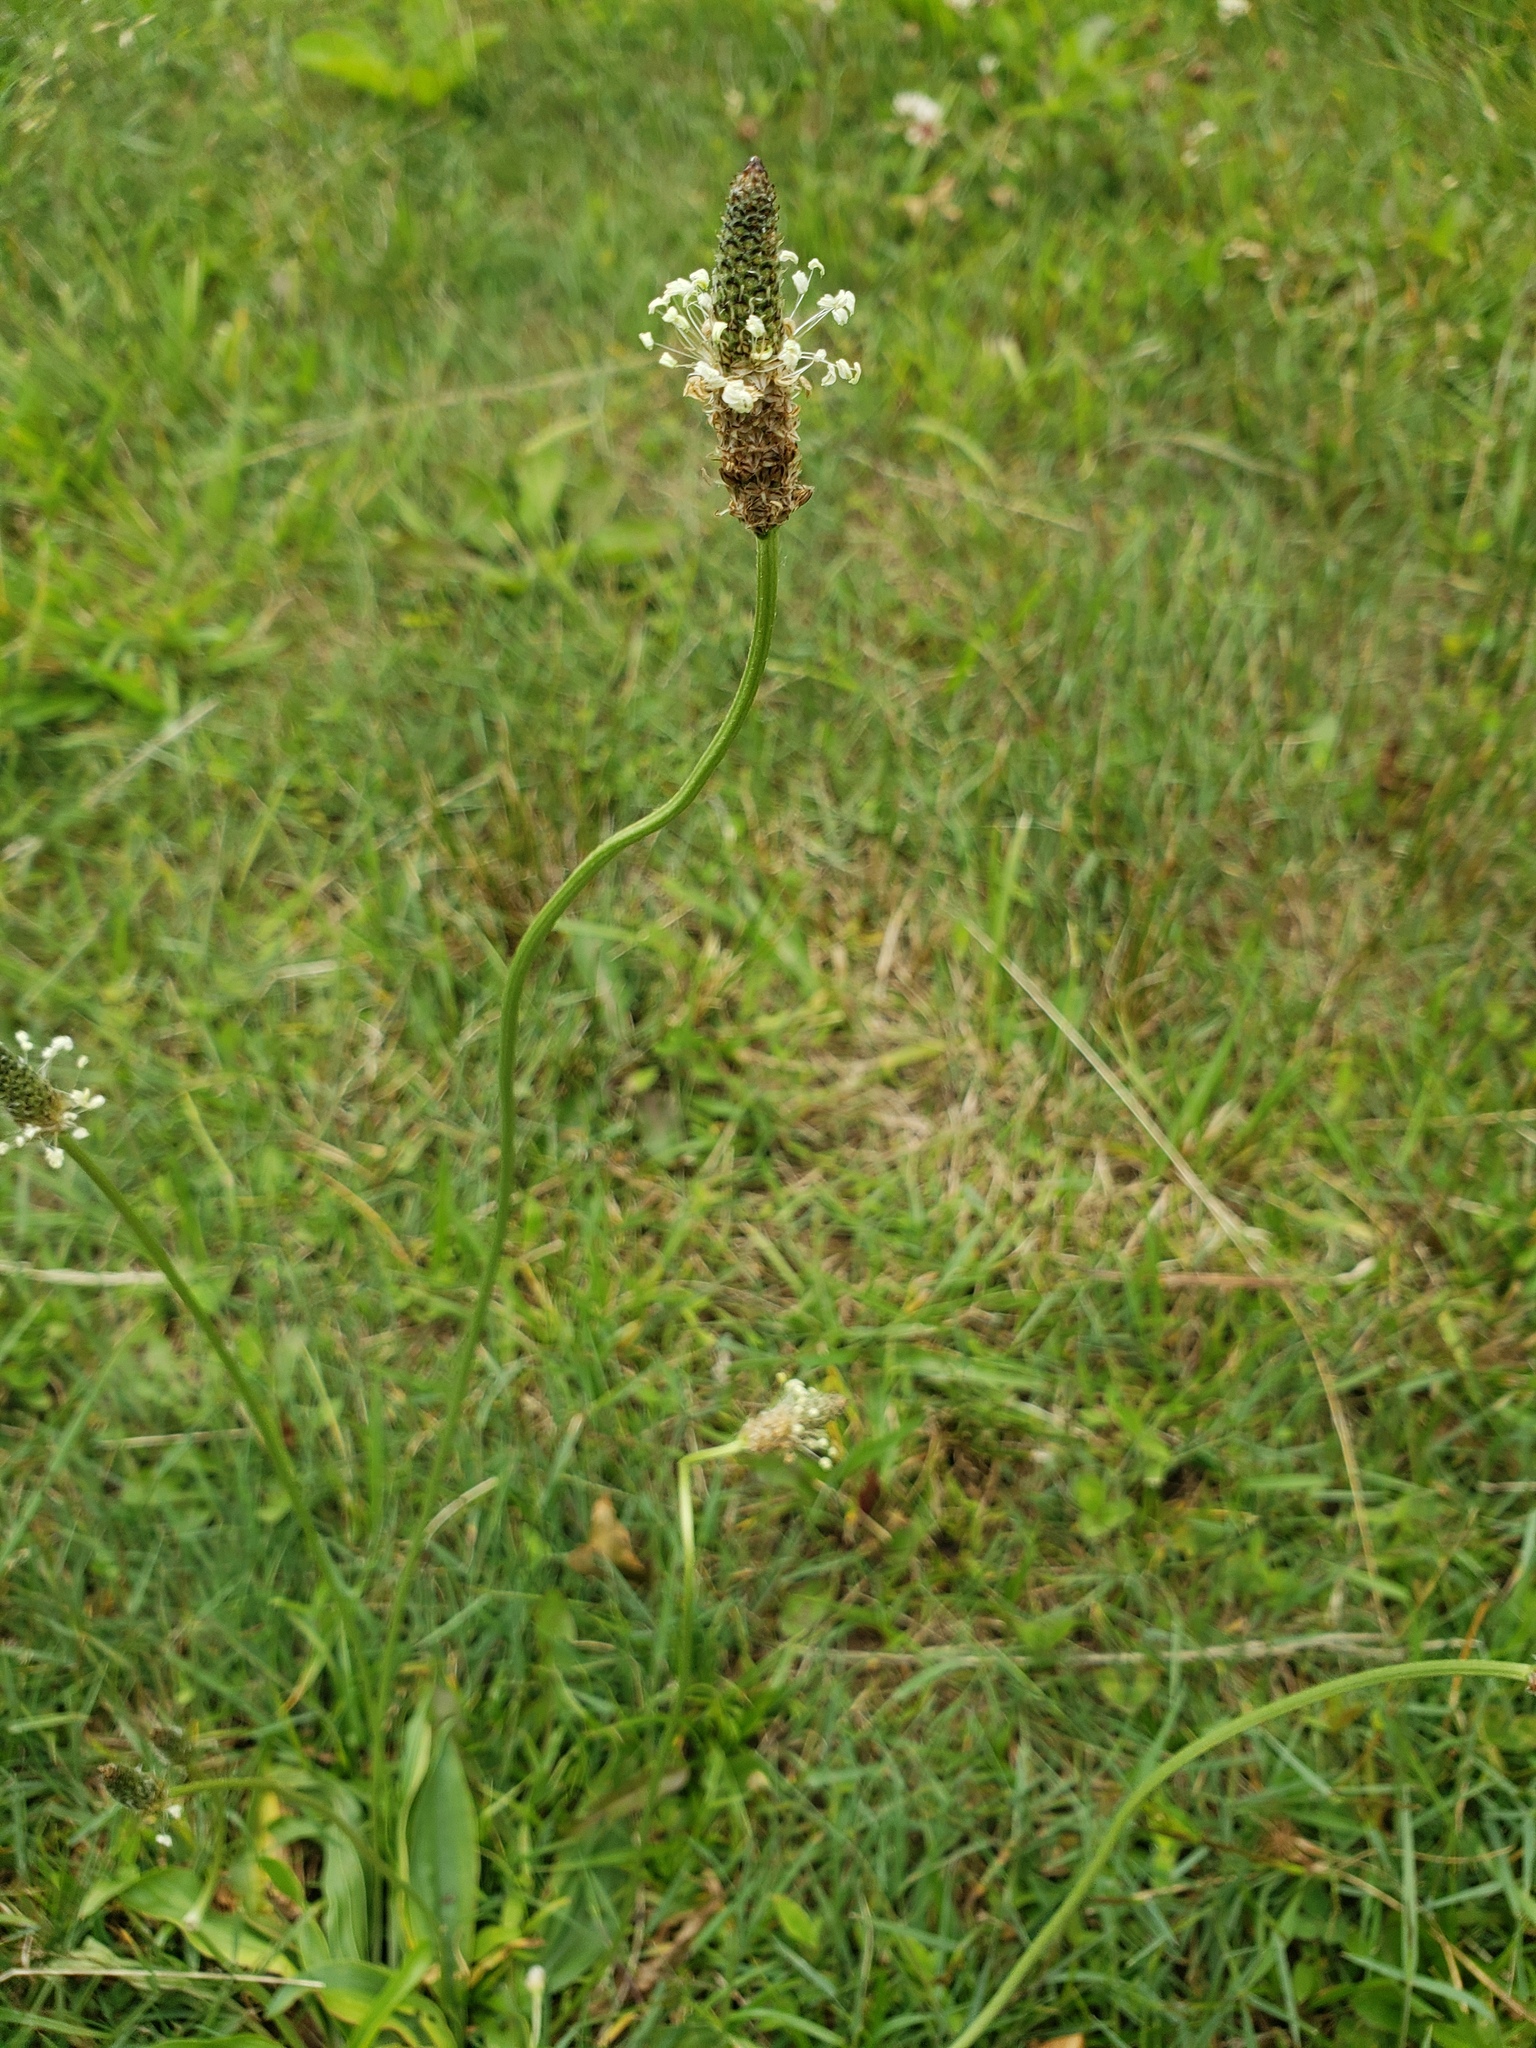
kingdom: Plantae
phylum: Tracheophyta
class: Magnoliopsida
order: Lamiales
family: Plantaginaceae
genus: Plantago
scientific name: Plantago lanceolata
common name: Ribwort plantain
